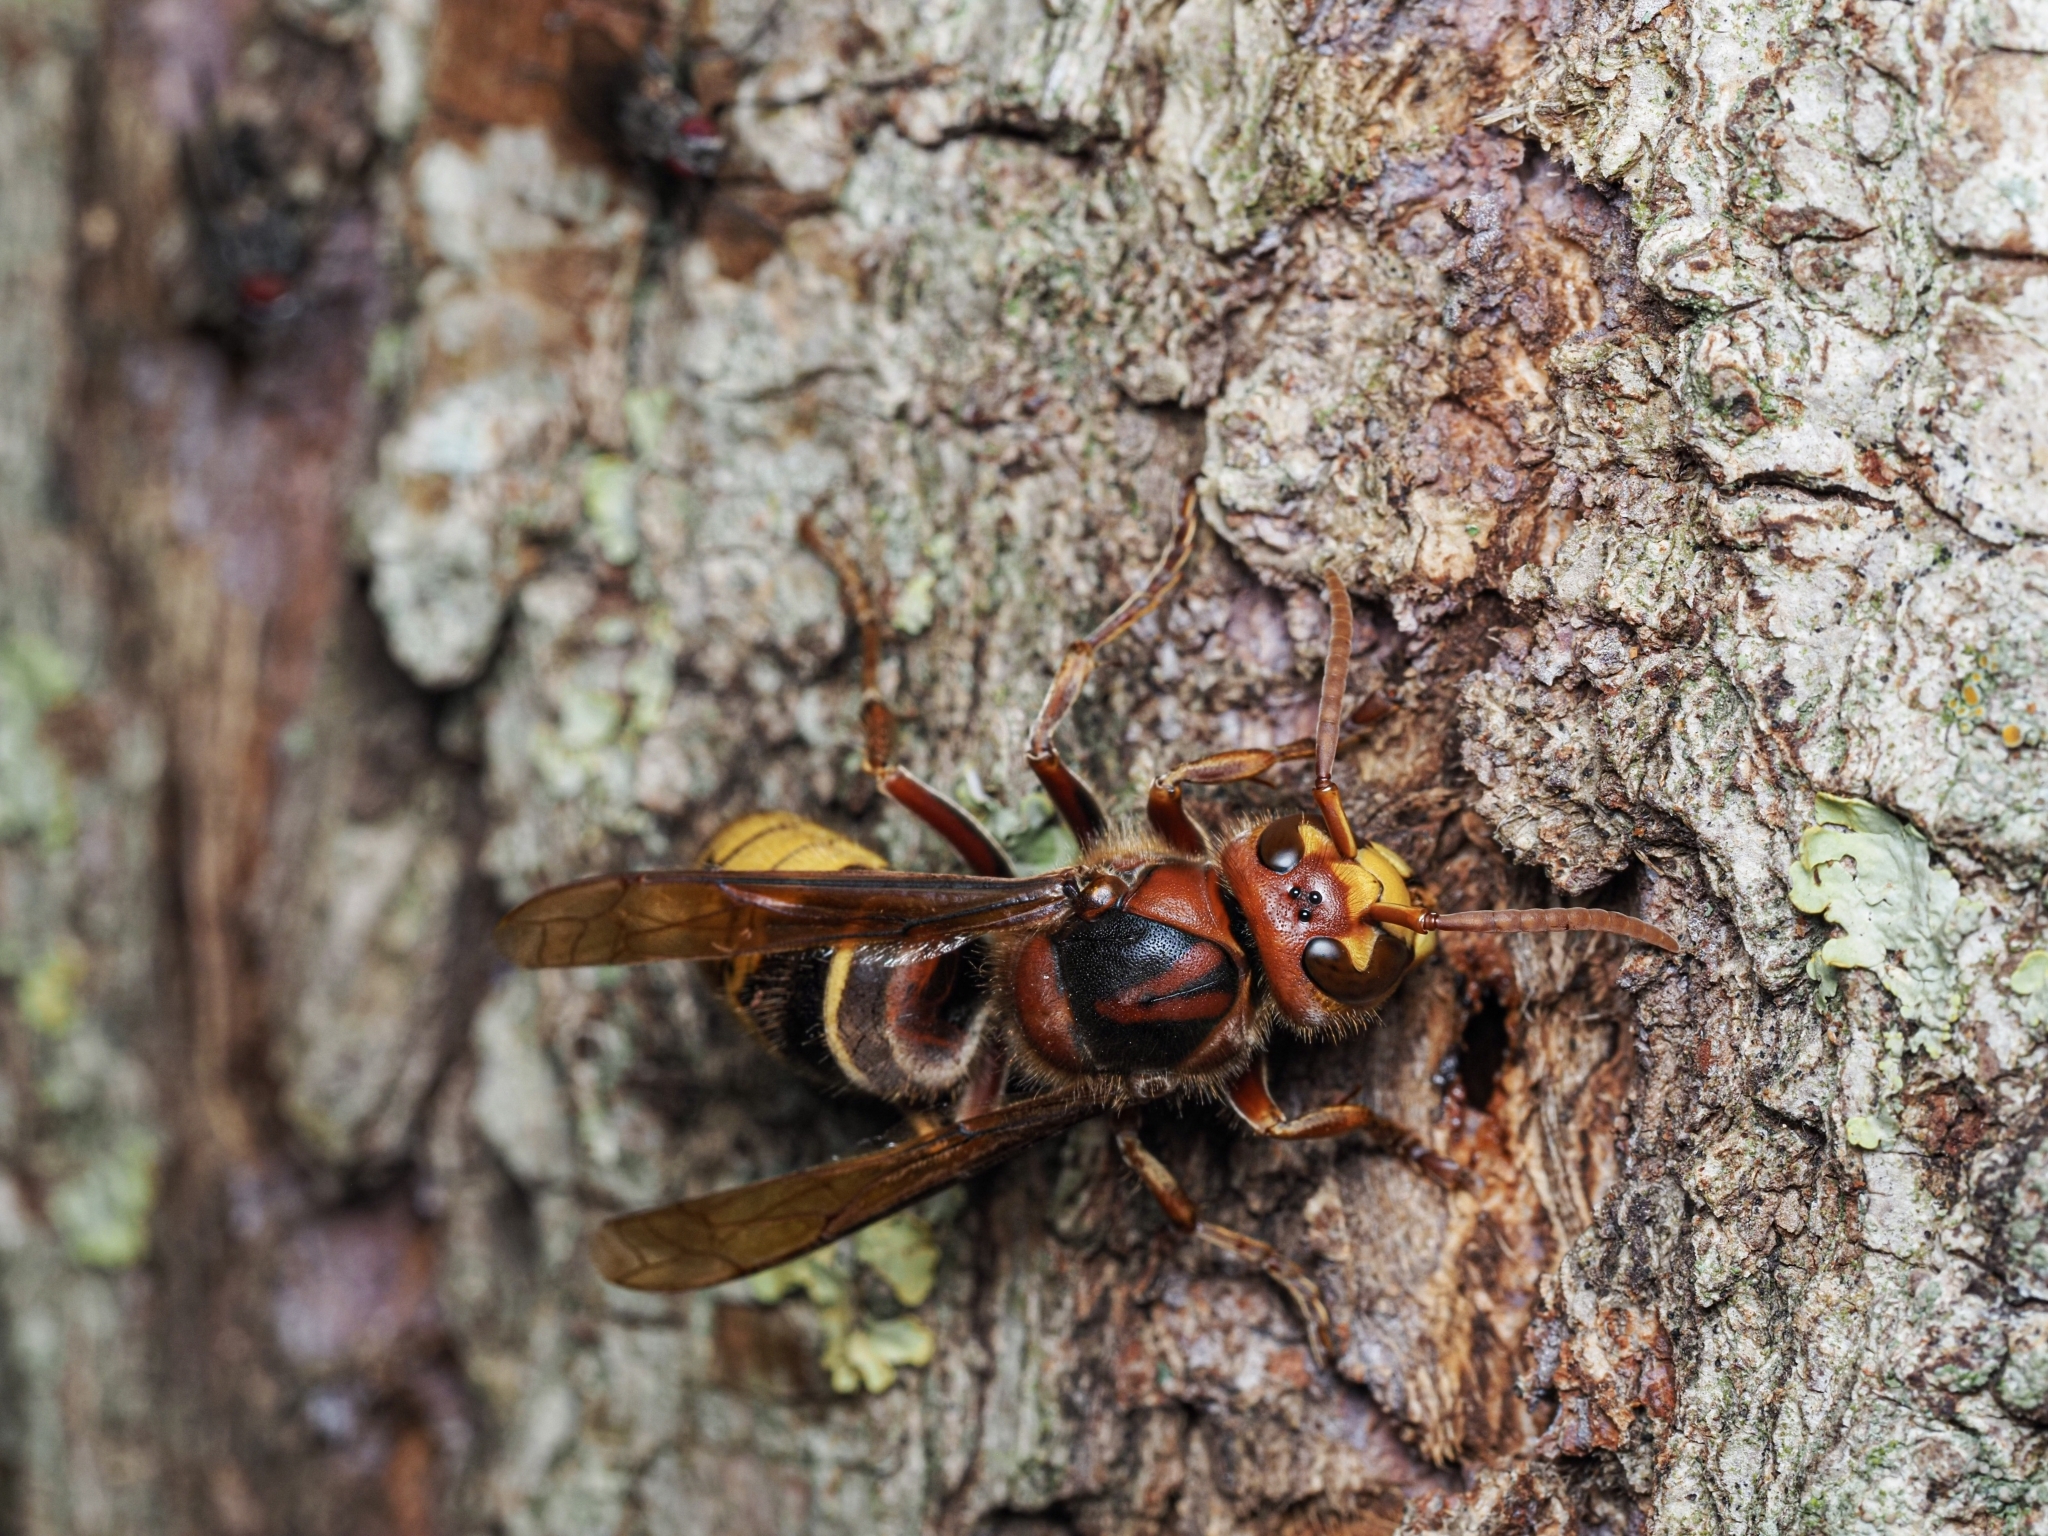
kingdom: Animalia
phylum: Arthropoda
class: Insecta
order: Hymenoptera
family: Vespidae
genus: Vespa
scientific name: Vespa crabro
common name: Hornet
